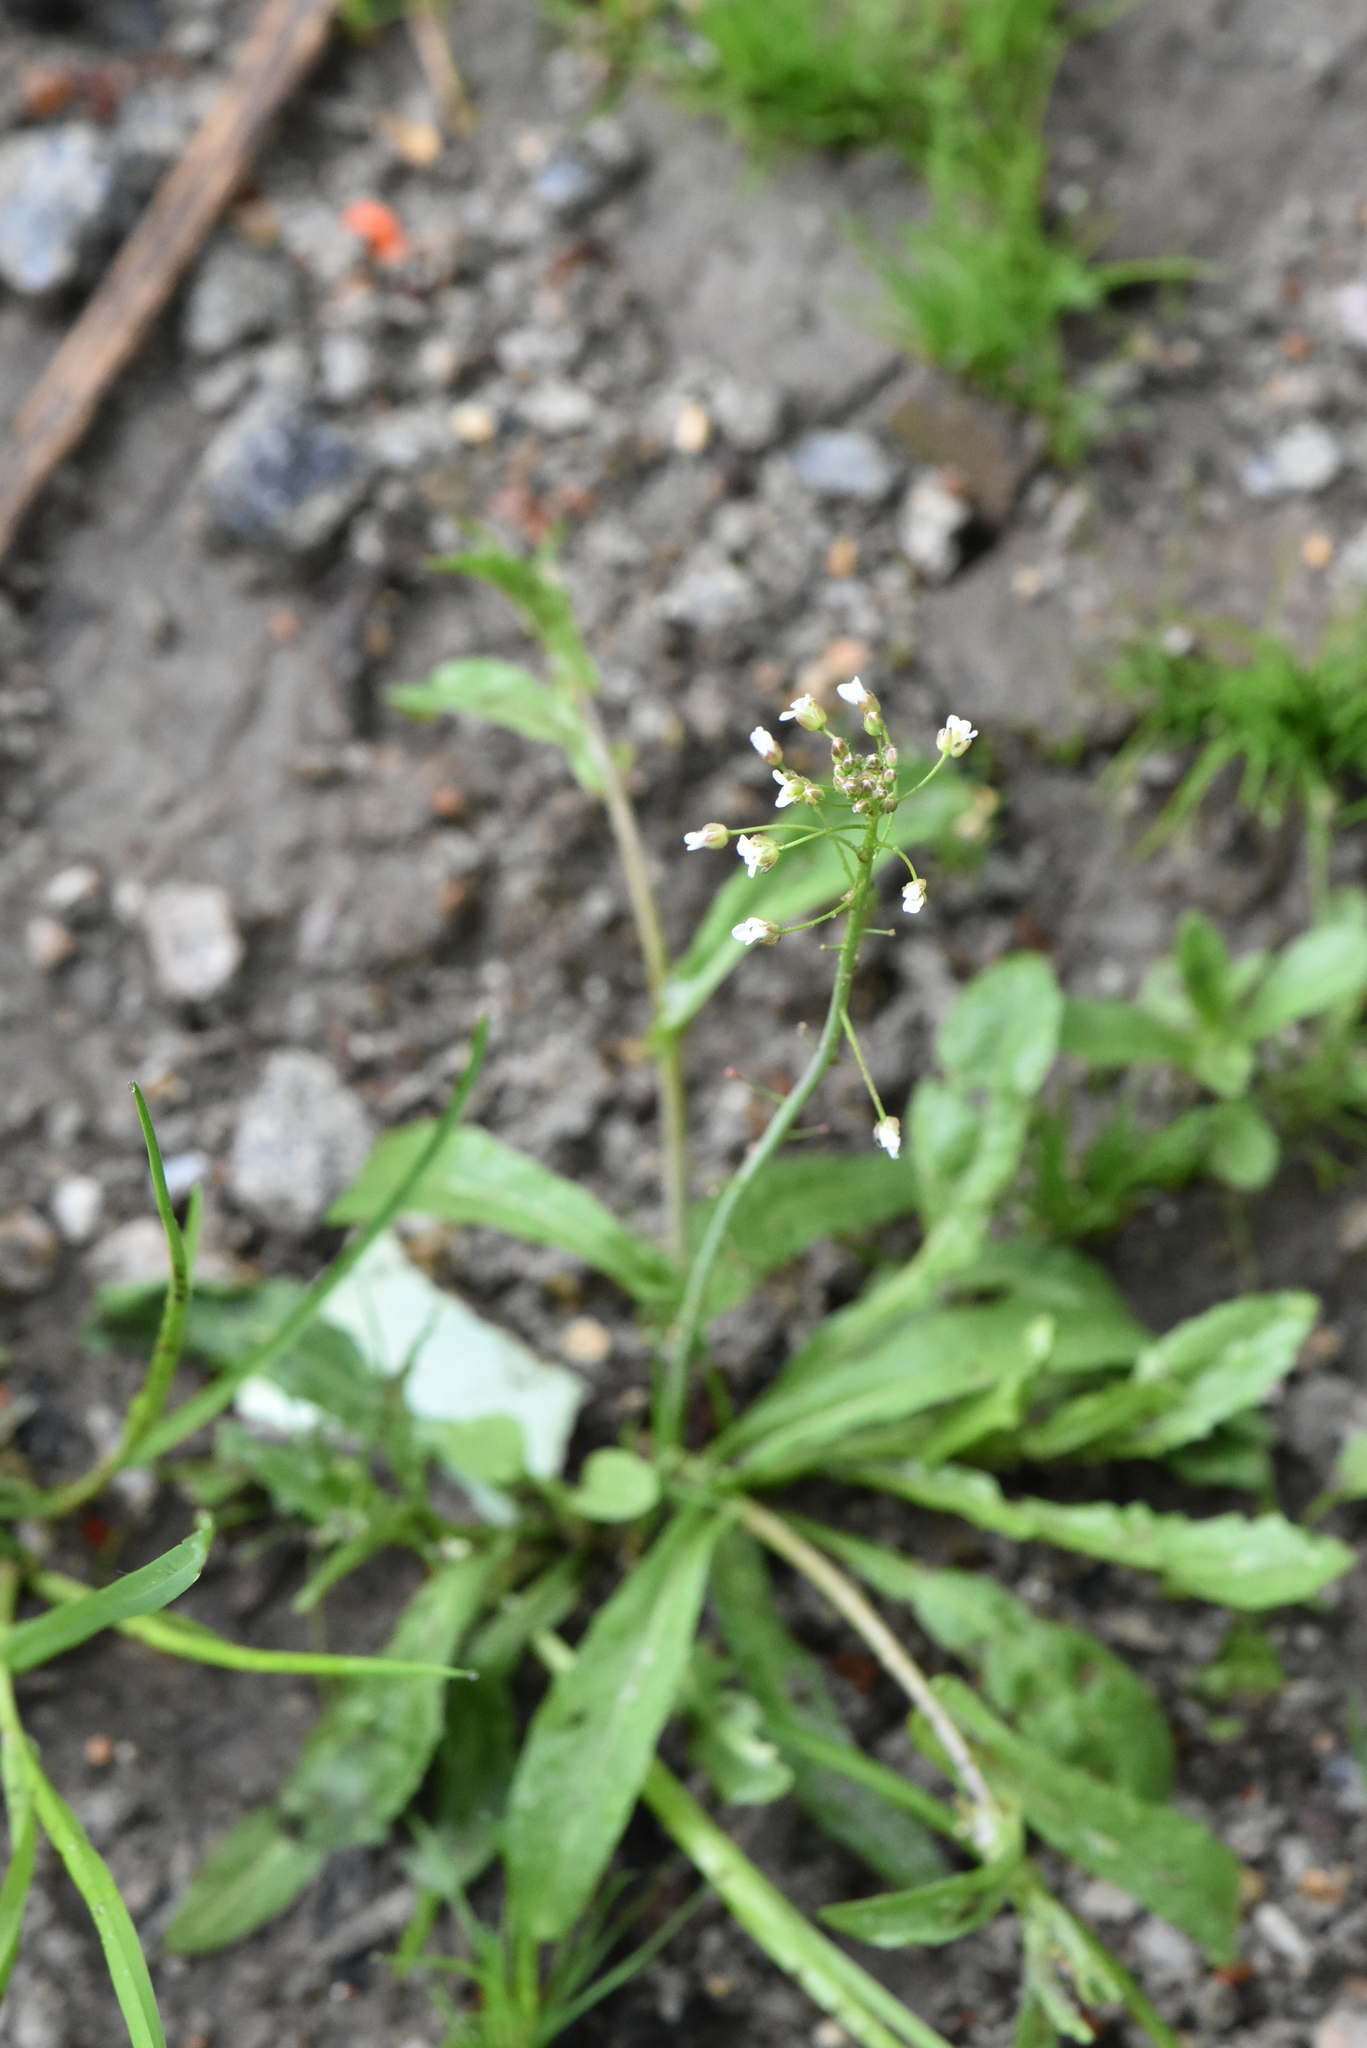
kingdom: Plantae
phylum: Tracheophyta
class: Magnoliopsida
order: Brassicales
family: Brassicaceae
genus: Capsella
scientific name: Capsella bursa-pastoris
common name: Shepherd's purse
